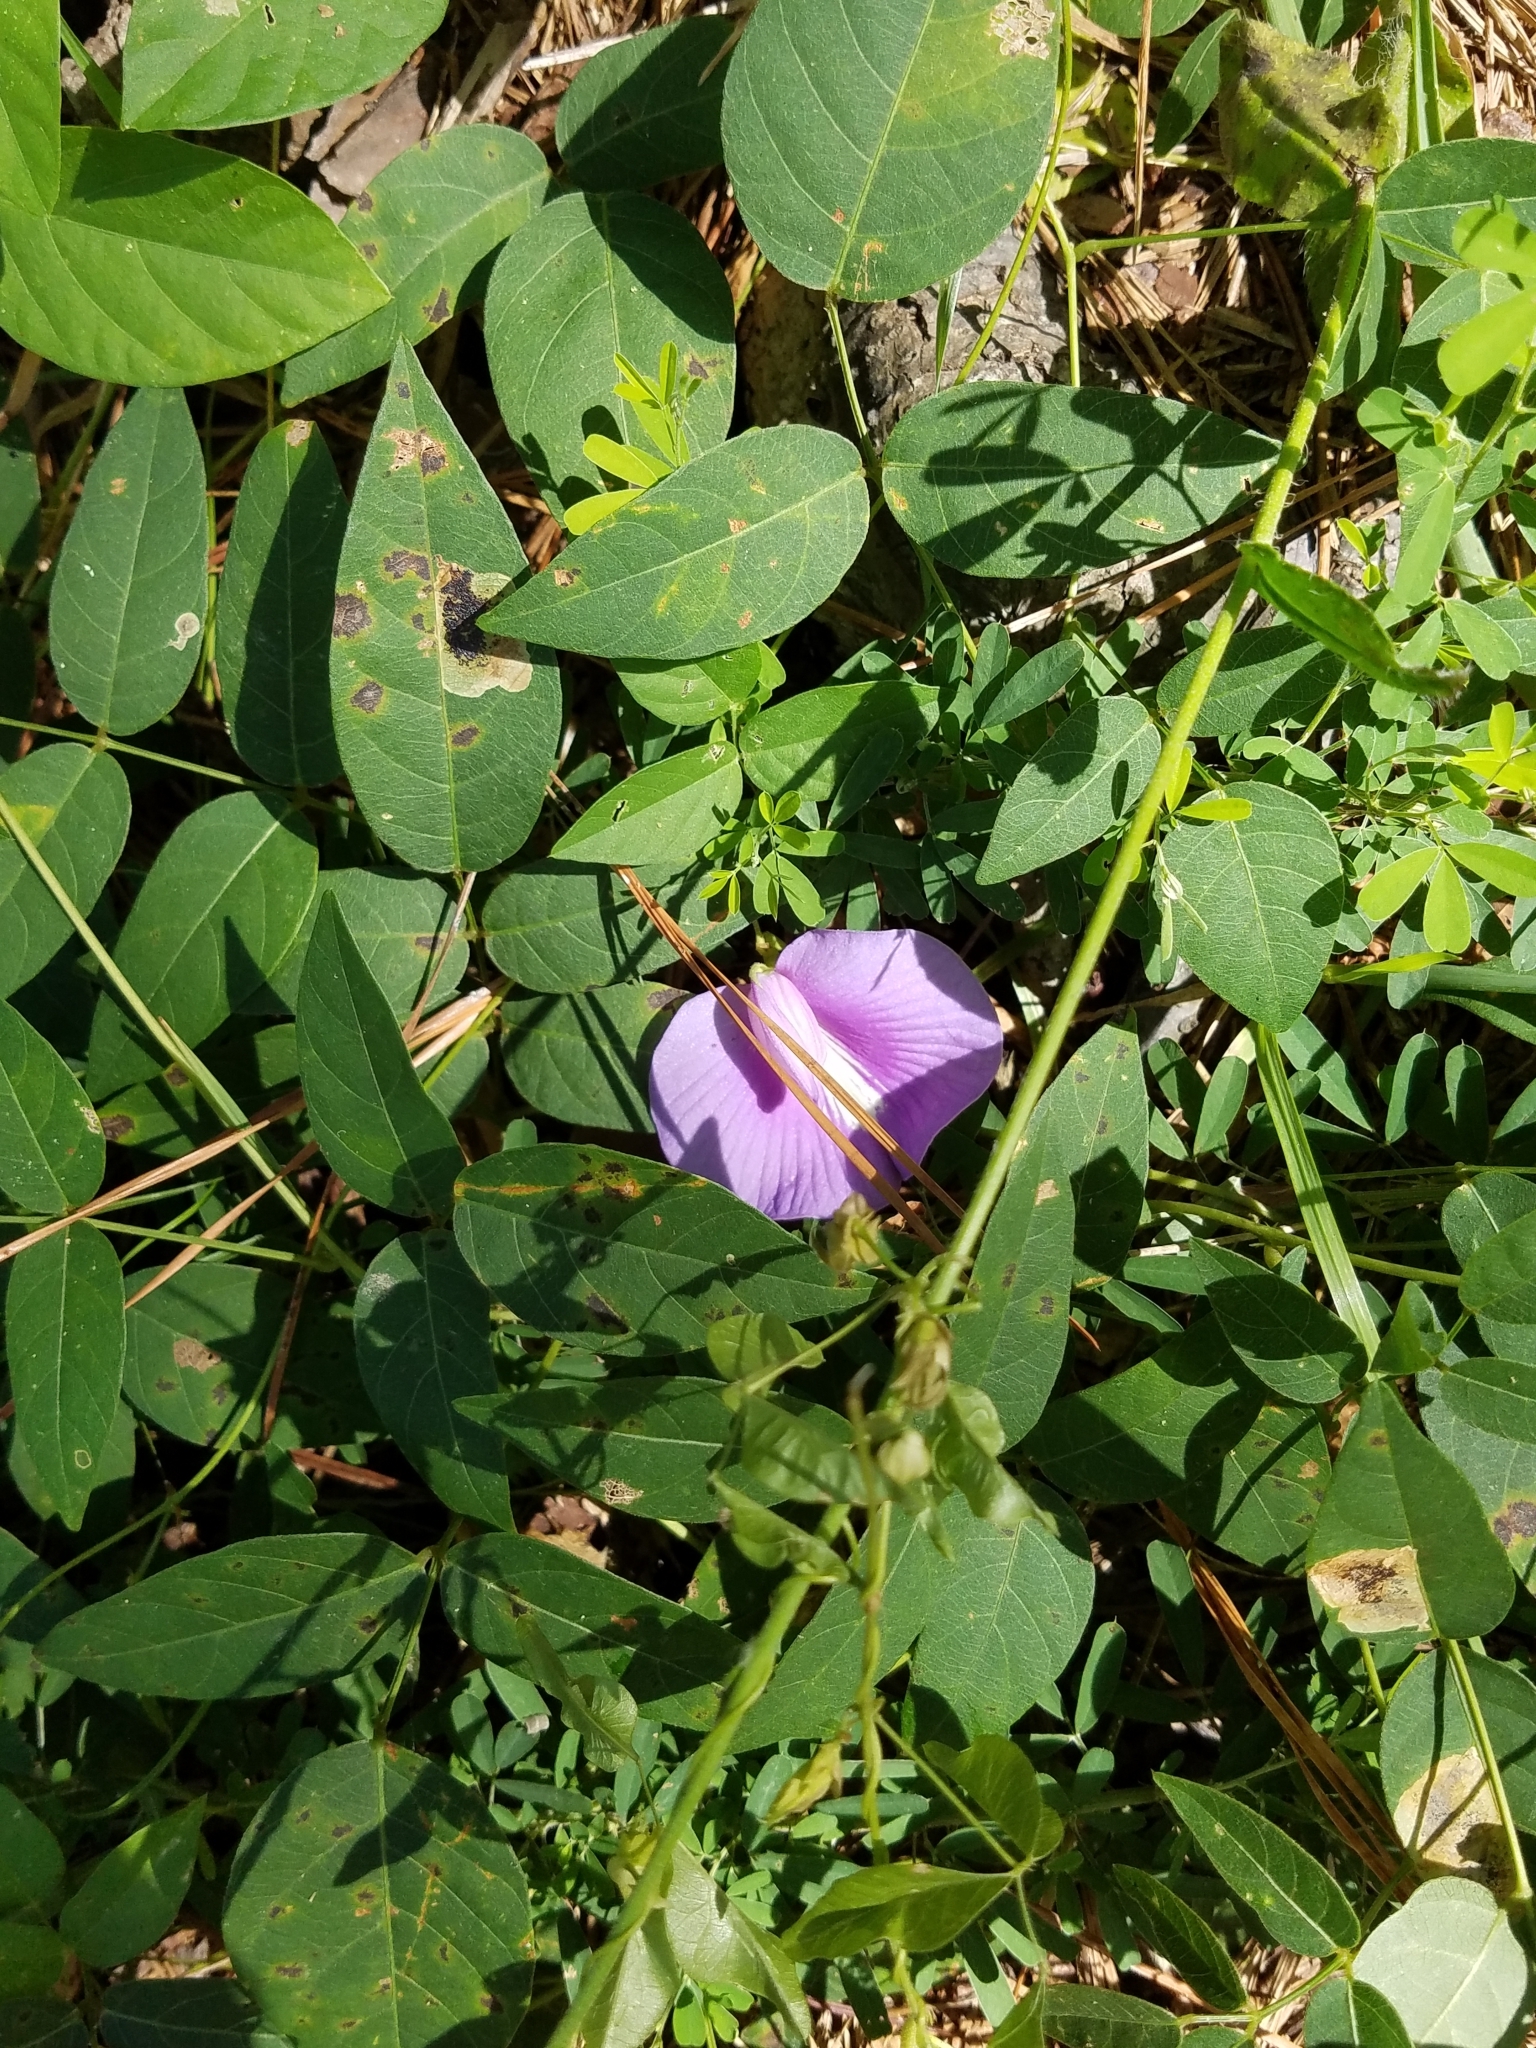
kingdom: Plantae
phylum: Tracheophyta
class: Magnoliopsida
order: Fabales
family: Fabaceae
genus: Centrosema
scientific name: Centrosema virginianum
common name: Butterfly-pea
